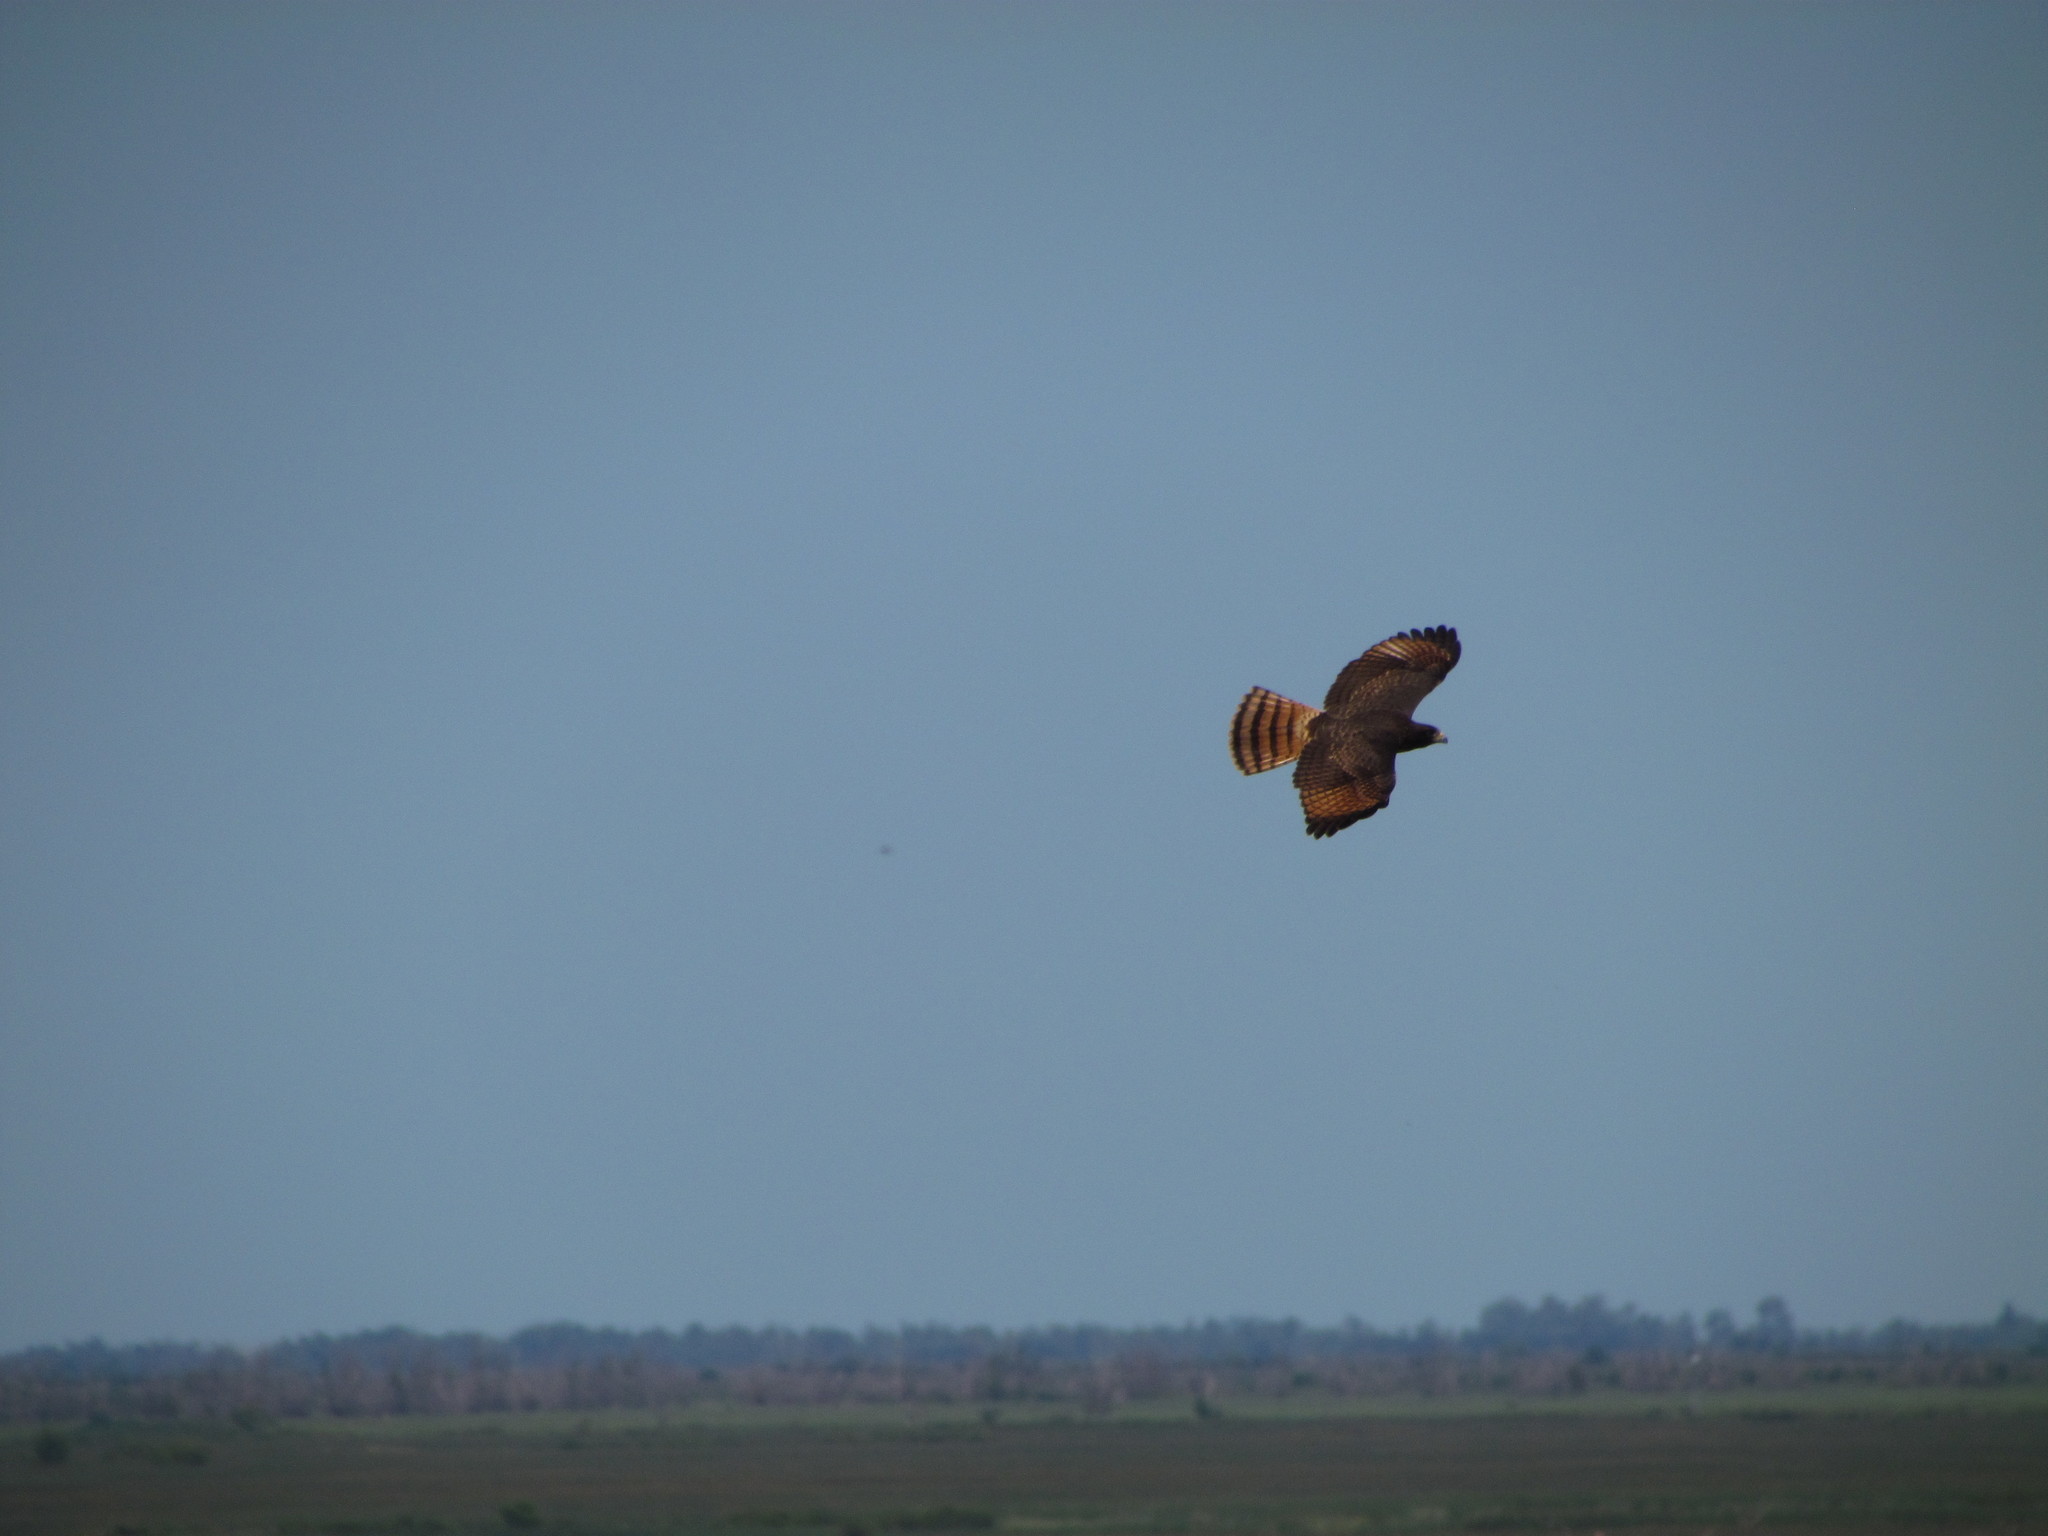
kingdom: Animalia
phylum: Chordata
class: Aves
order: Accipitriformes
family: Accipitridae
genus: Rupornis
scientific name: Rupornis magnirostris
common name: Roadside hawk
